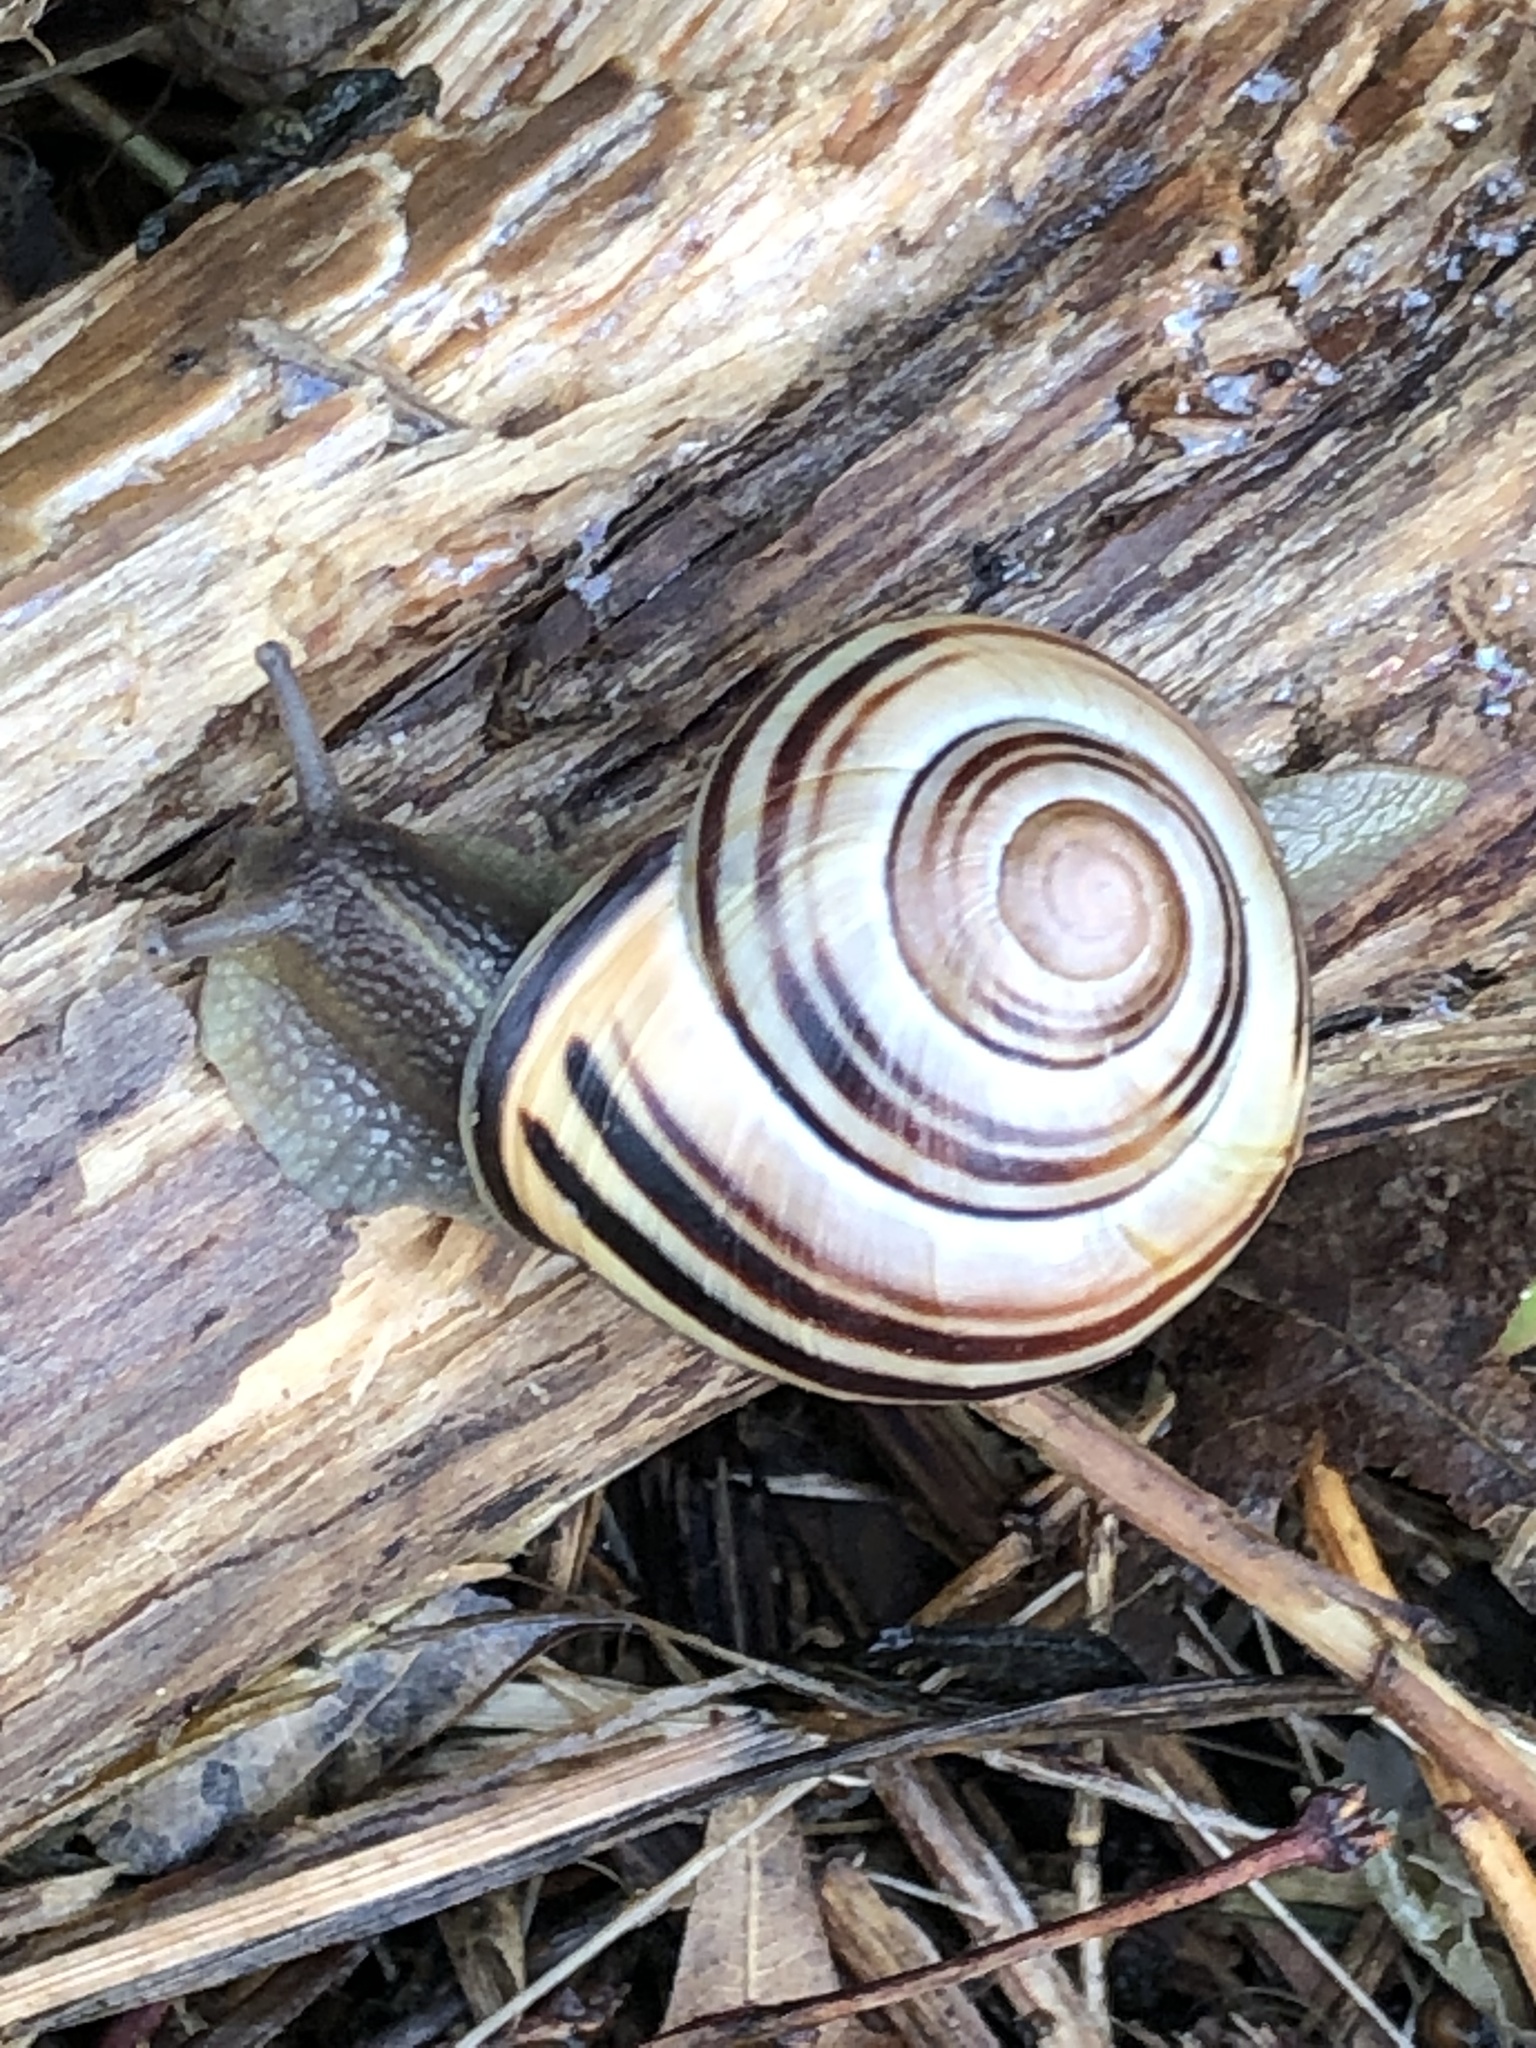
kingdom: Animalia
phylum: Mollusca
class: Gastropoda
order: Stylommatophora
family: Helicidae
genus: Cepaea
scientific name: Cepaea nemoralis
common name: Grovesnail
